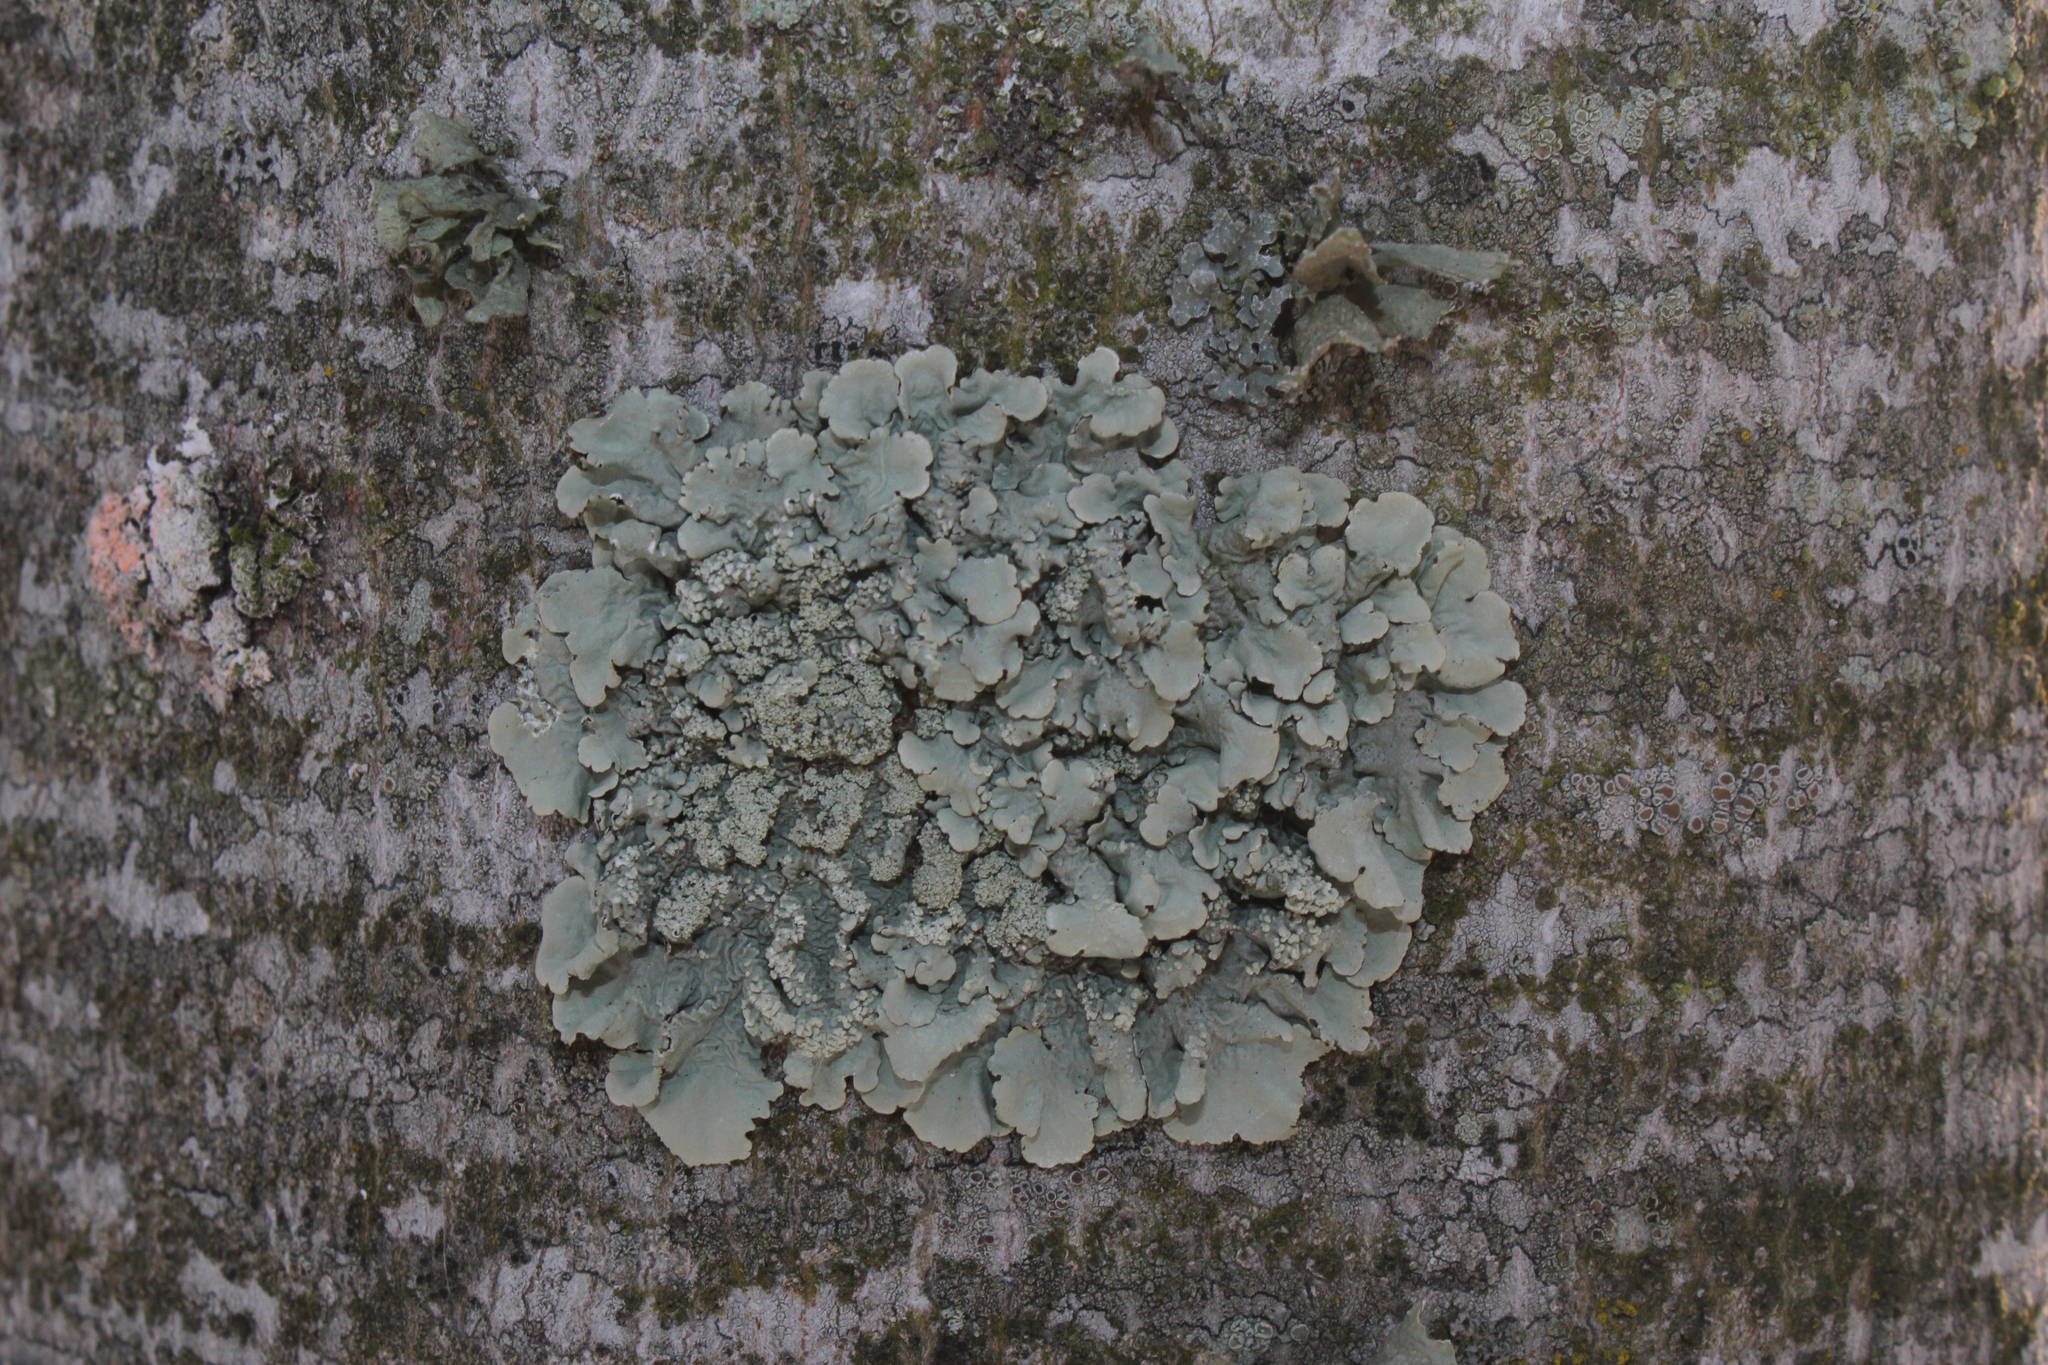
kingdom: Fungi
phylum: Ascomycota
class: Lecanoromycetes
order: Lecanorales
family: Parmeliaceae
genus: Flavoparmelia
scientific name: Flavoparmelia caperata
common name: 40-mile per hour lichen
